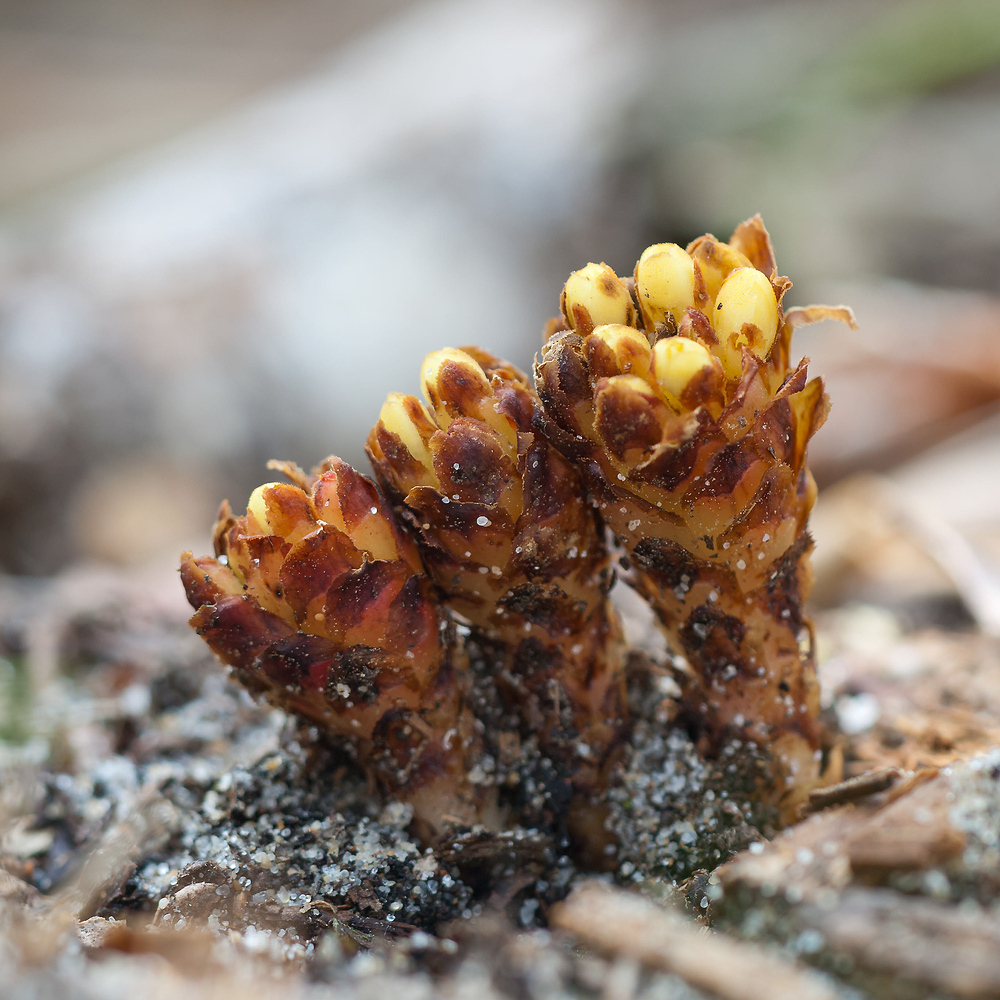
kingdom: Plantae
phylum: Tracheophyta
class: Magnoliopsida
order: Malvales
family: Cytinaceae
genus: Cytinus
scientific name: Cytinus hypocistis
